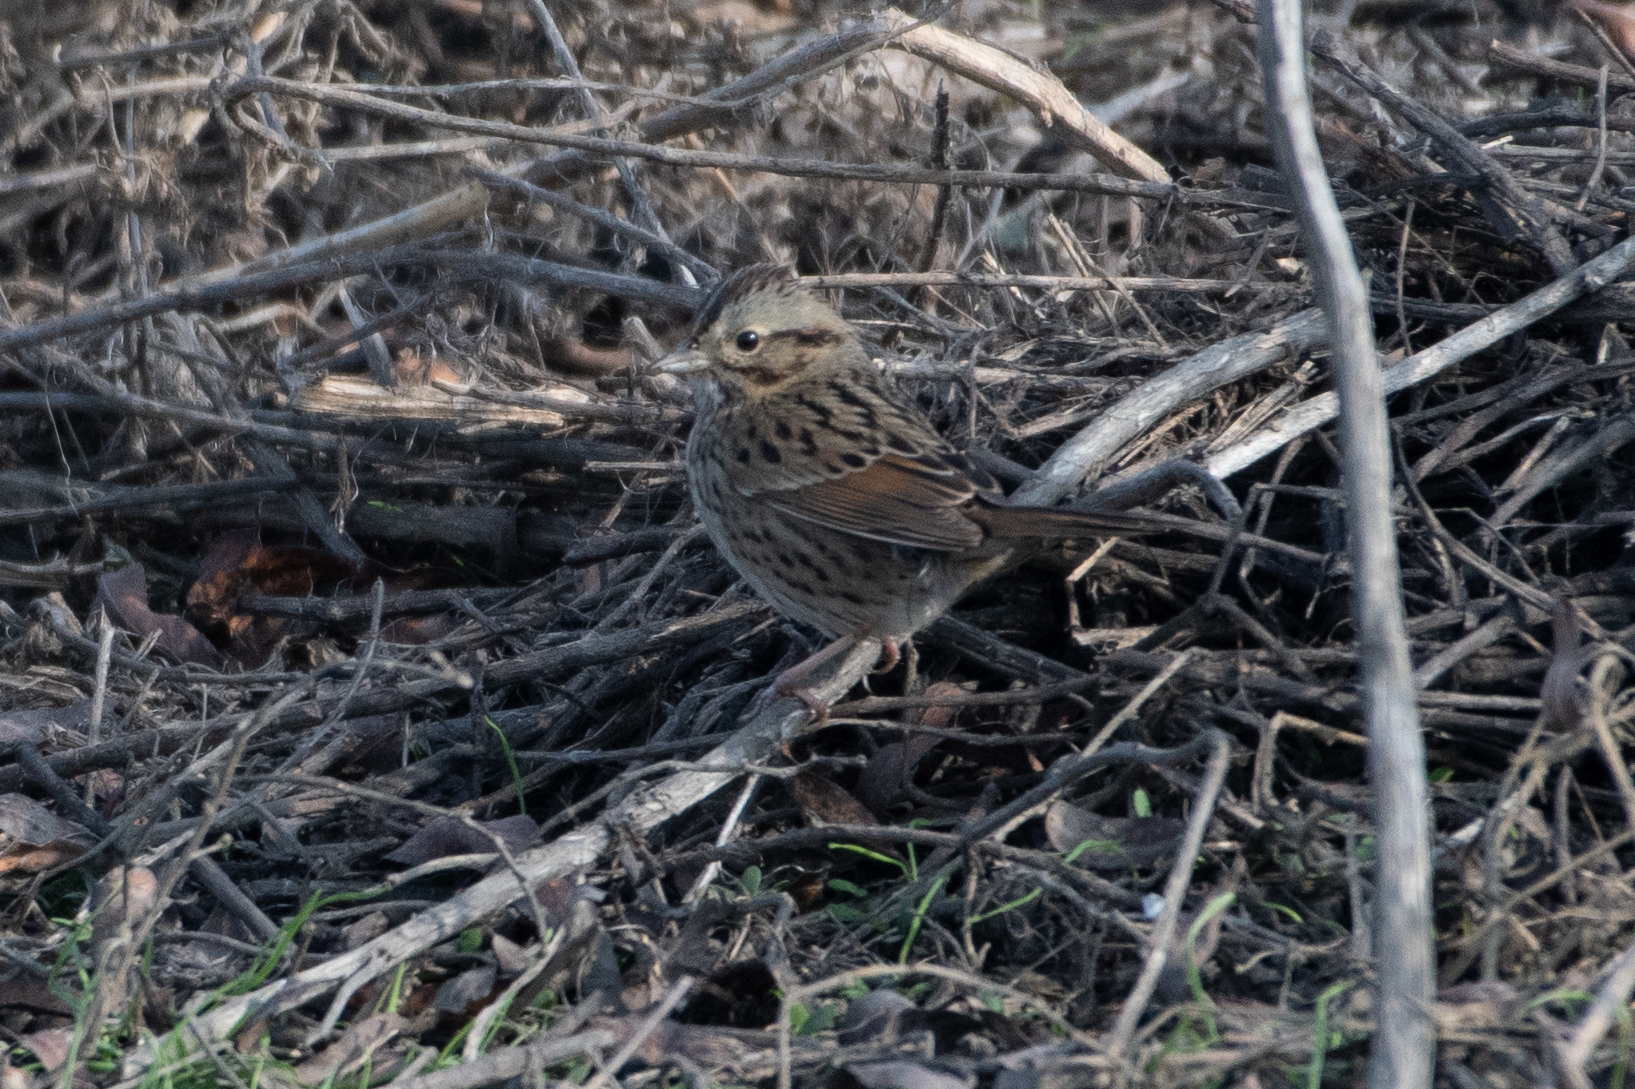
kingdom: Animalia
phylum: Chordata
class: Aves
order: Passeriformes
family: Passerellidae
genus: Melospiza
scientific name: Melospiza lincolnii
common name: Lincoln's sparrow
